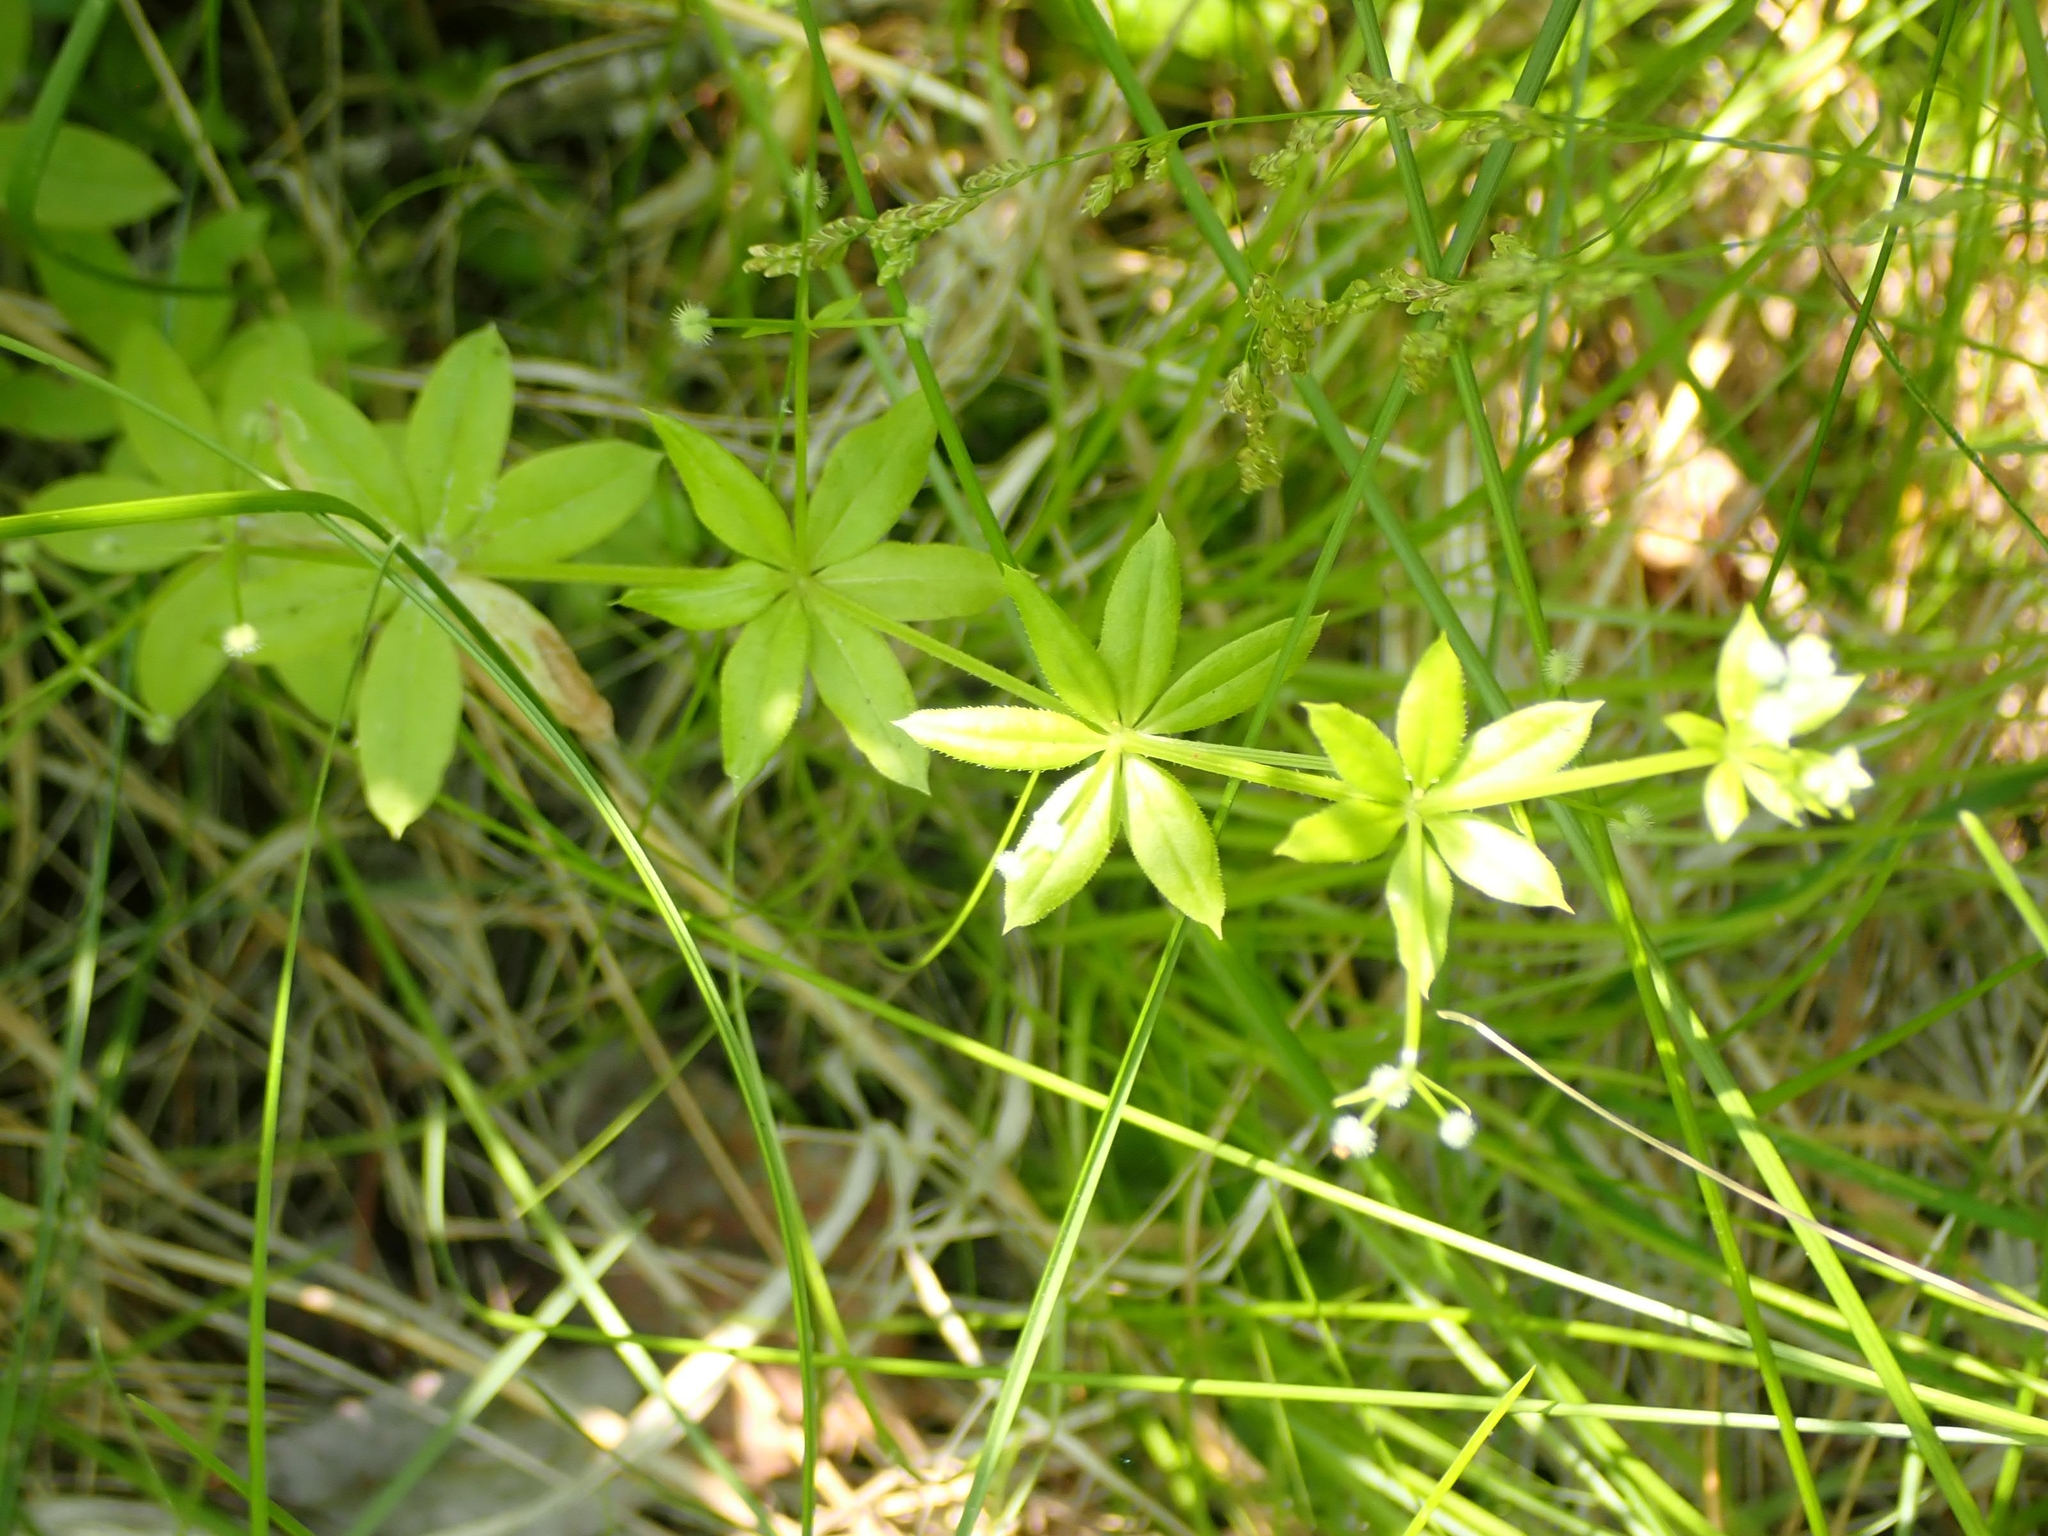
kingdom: Plantae
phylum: Tracheophyta
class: Magnoliopsida
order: Gentianales
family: Rubiaceae
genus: Galium
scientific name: Galium triflorum
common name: Fragrant bedstraw
